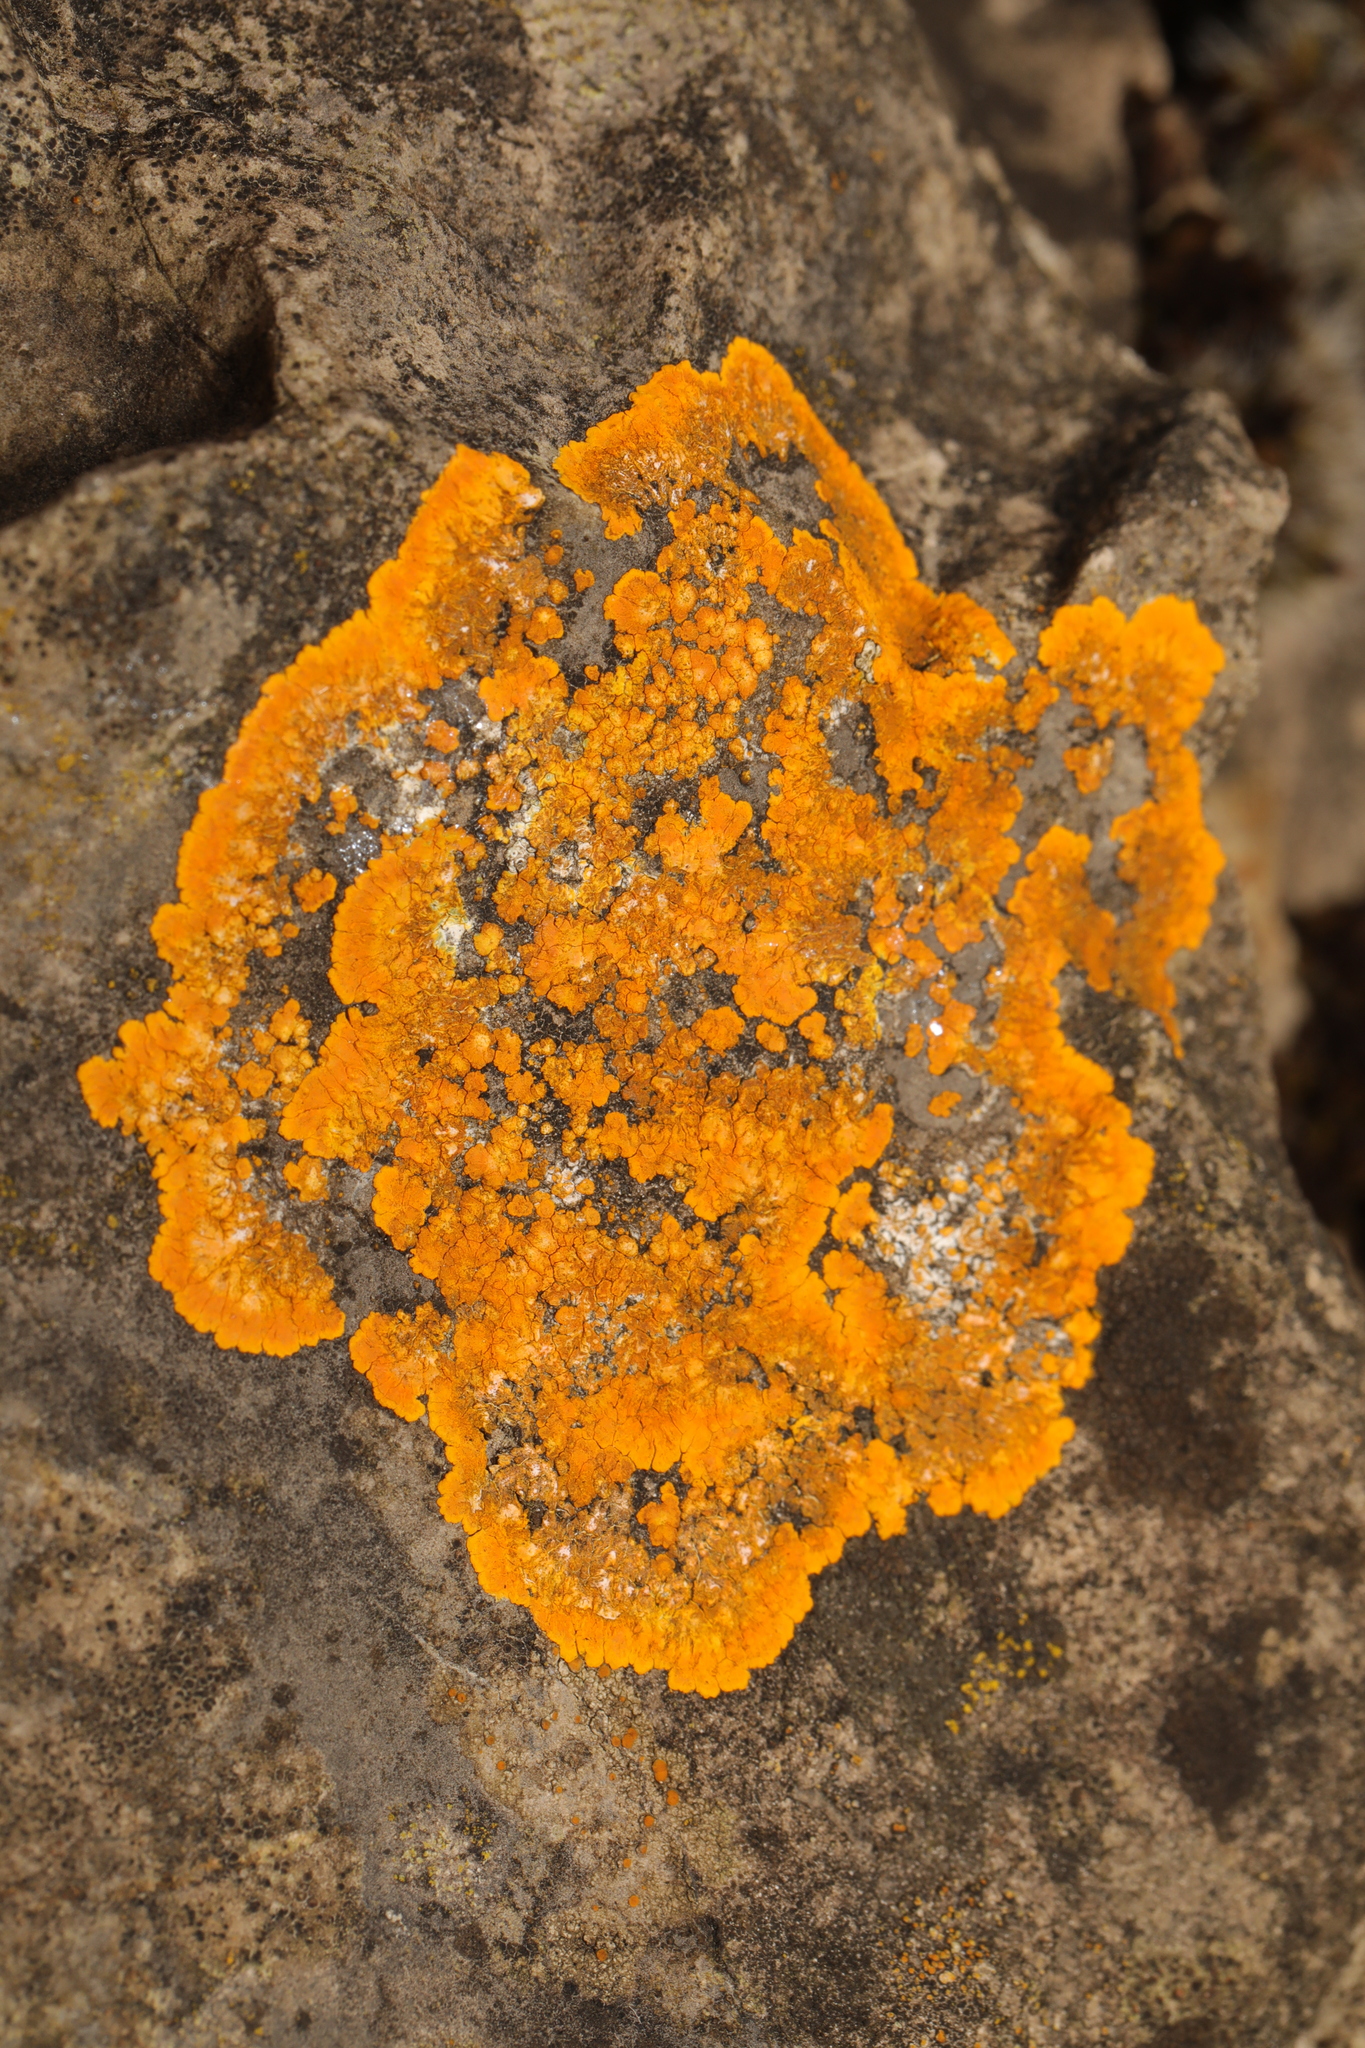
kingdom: Fungi
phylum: Ascomycota
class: Lecanoromycetes
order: Teloschistales
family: Teloschistaceae
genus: Variospora
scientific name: Variospora aurantia
